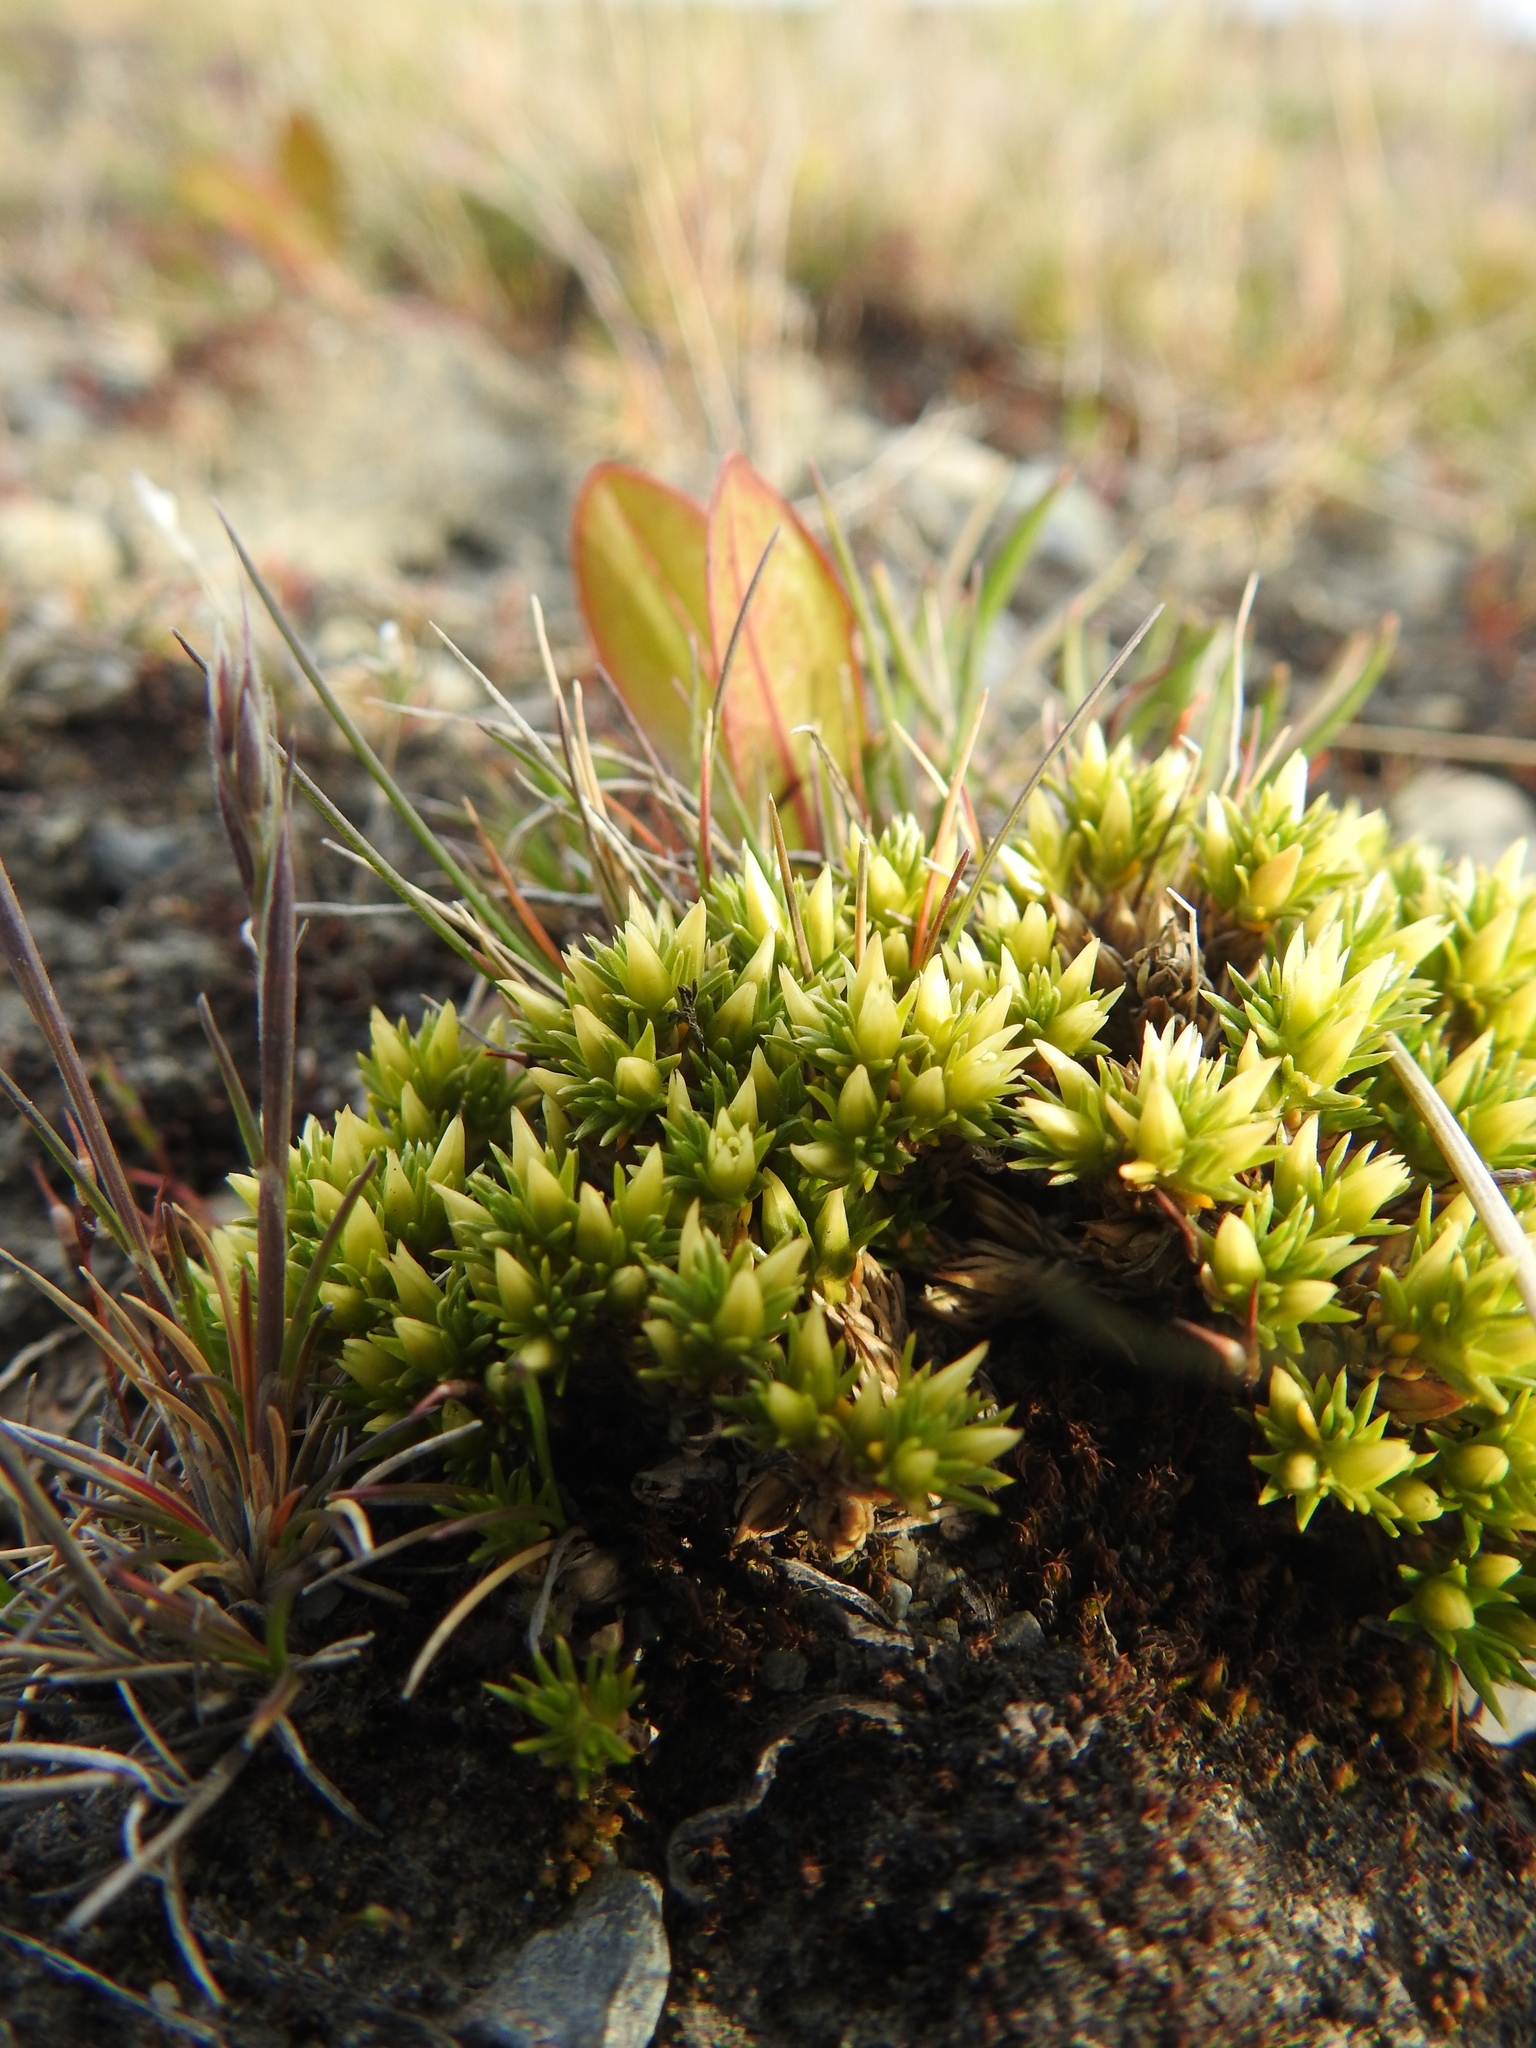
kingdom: Plantae
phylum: Tracheophyta
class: Magnoliopsida
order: Caryophyllales
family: Caryophyllaceae
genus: Colobanthus
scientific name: Colobanthus lycopodioides
